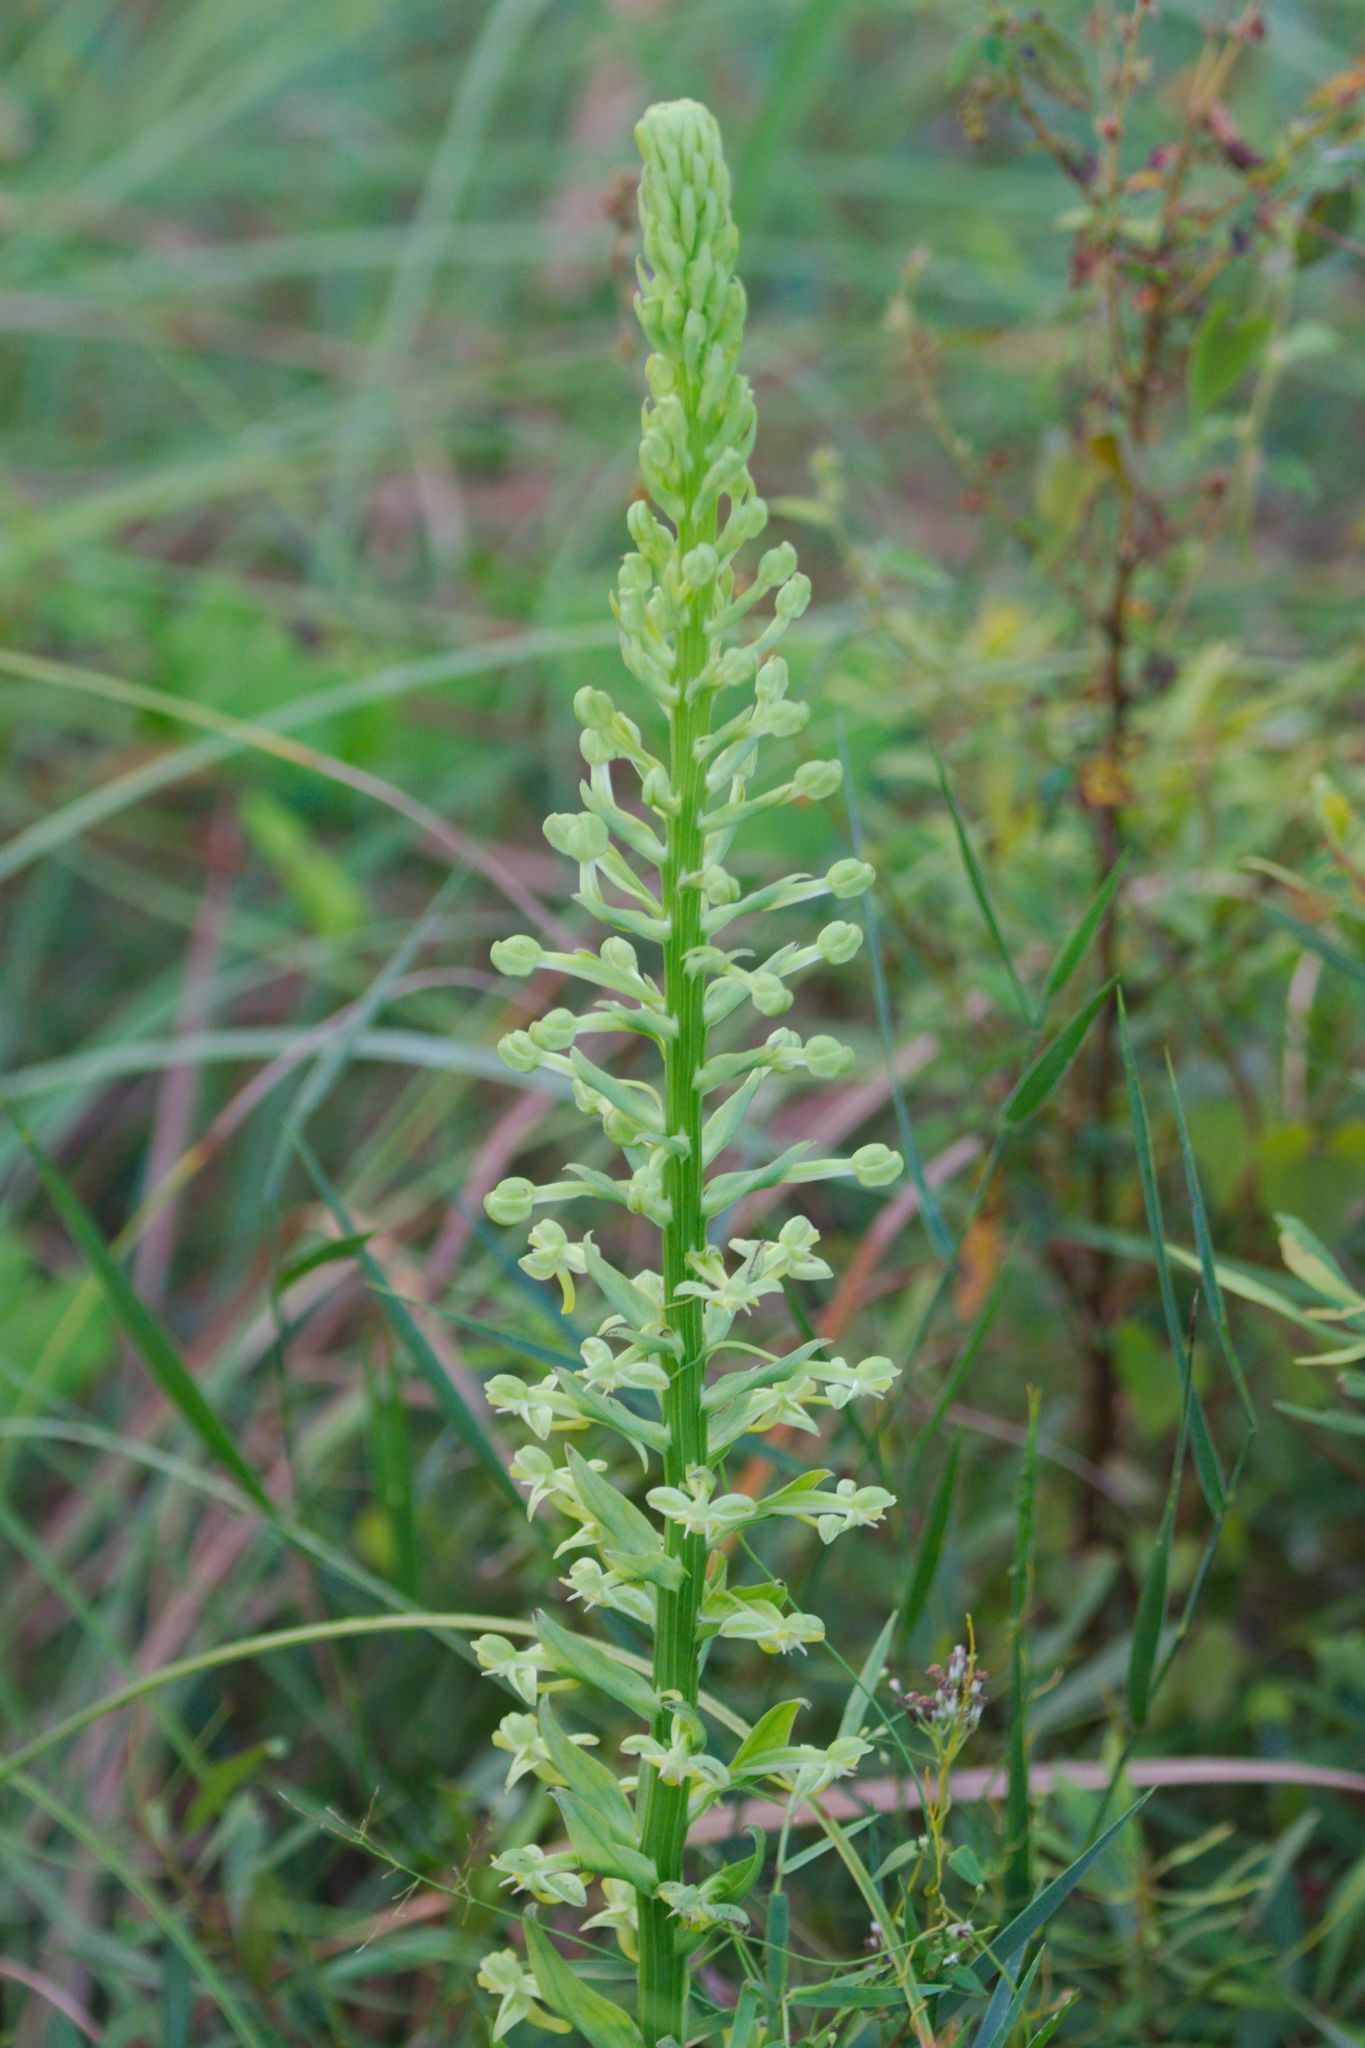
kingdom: Plantae
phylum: Tracheophyta
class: Liliopsida
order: Asparagales
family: Orchidaceae
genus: Habenaria
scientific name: Habenaria floribunda
